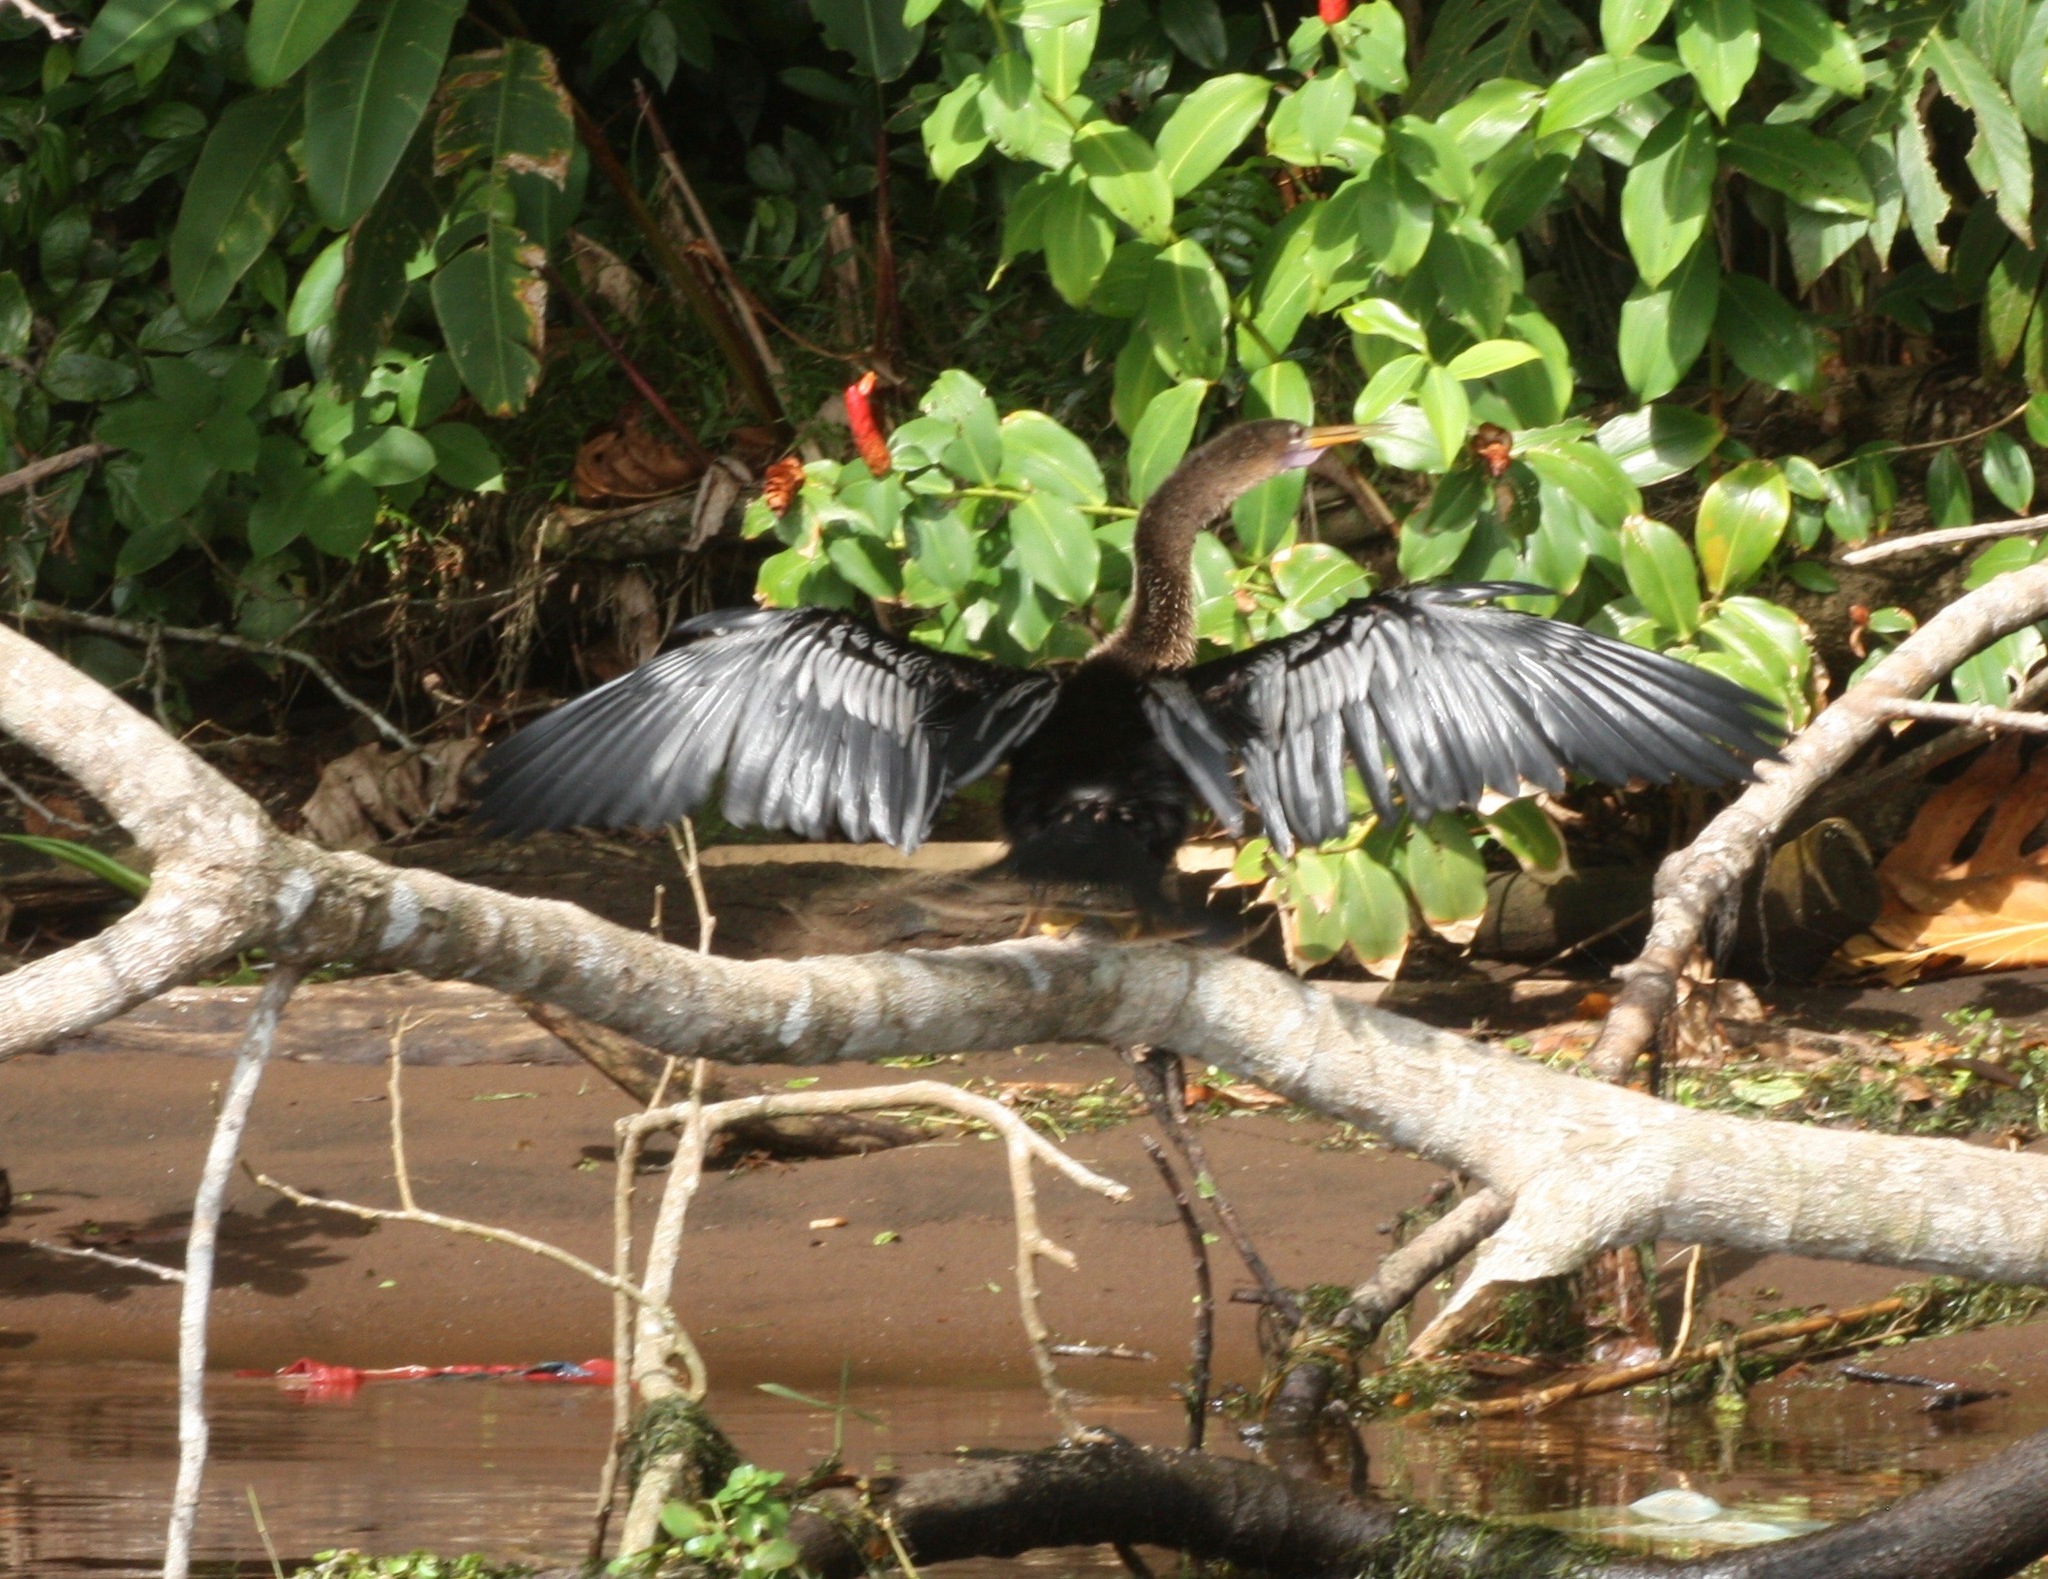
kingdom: Animalia
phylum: Chordata
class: Aves
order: Suliformes
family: Anhingidae
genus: Anhinga
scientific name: Anhinga anhinga
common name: Anhinga
